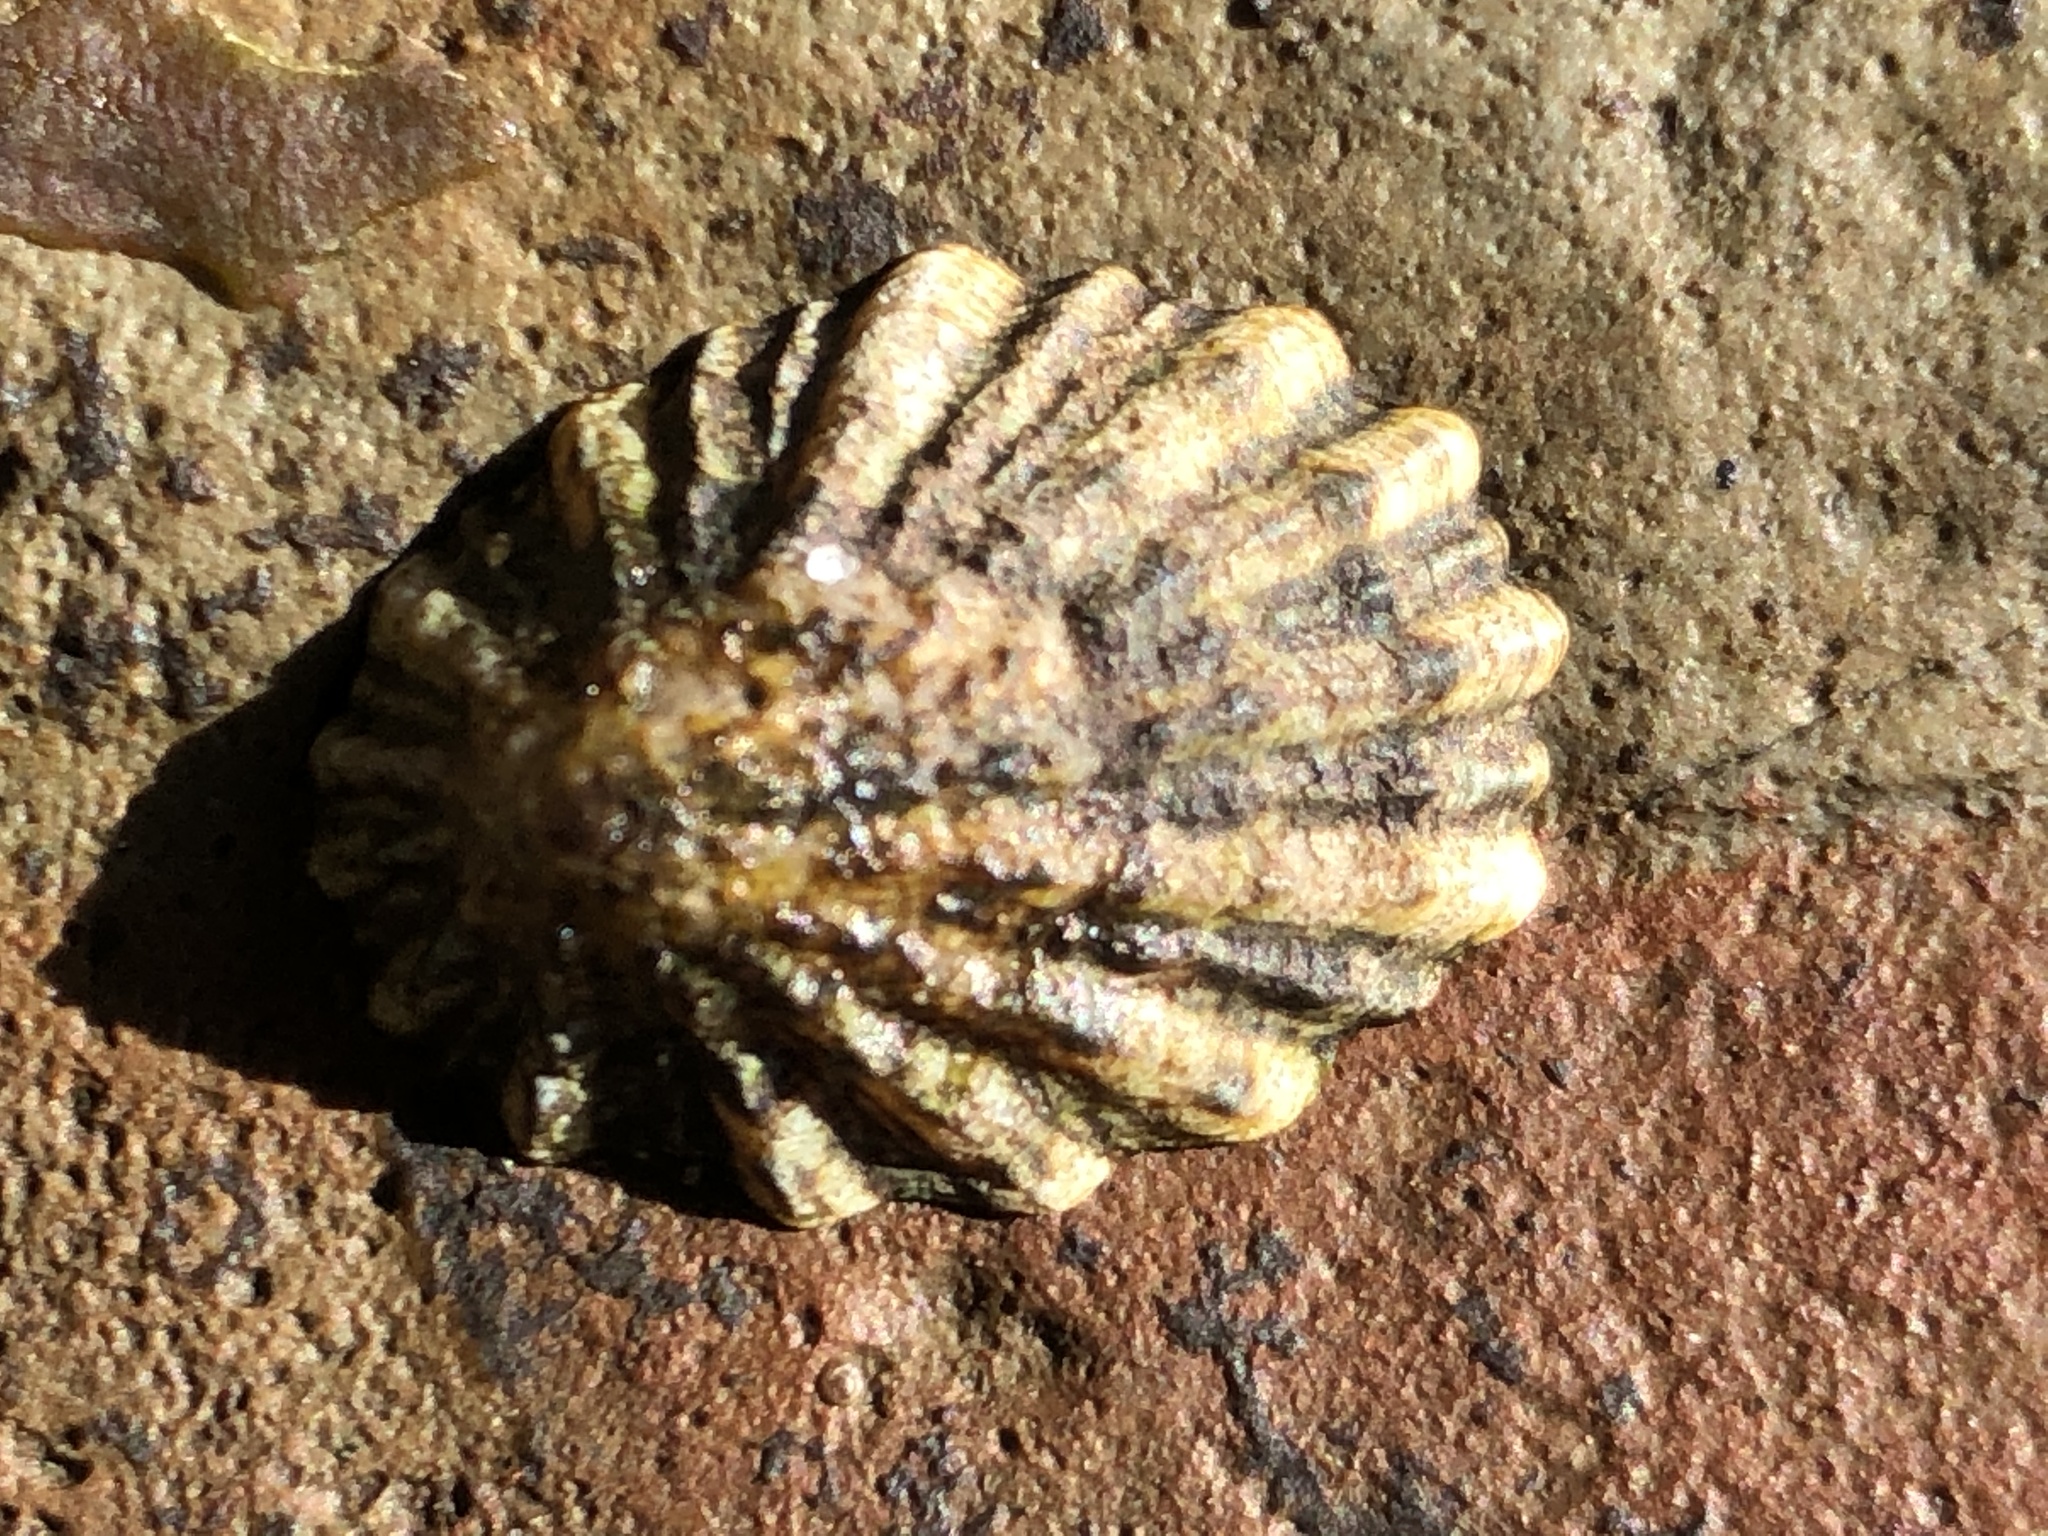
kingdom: Animalia
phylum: Mollusca
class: Gastropoda
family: Lottiidae
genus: Lottia
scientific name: Lottia scabra
